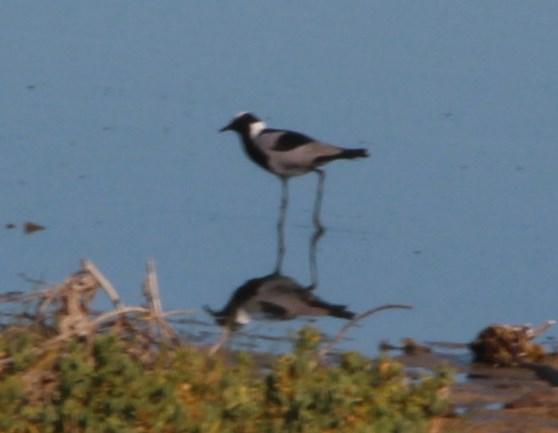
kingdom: Animalia
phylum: Chordata
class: Aves
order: Charadriiformes
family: Charadriidae
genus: Vanellus
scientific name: Vanellus armatus
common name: Blacksmith lapwing
